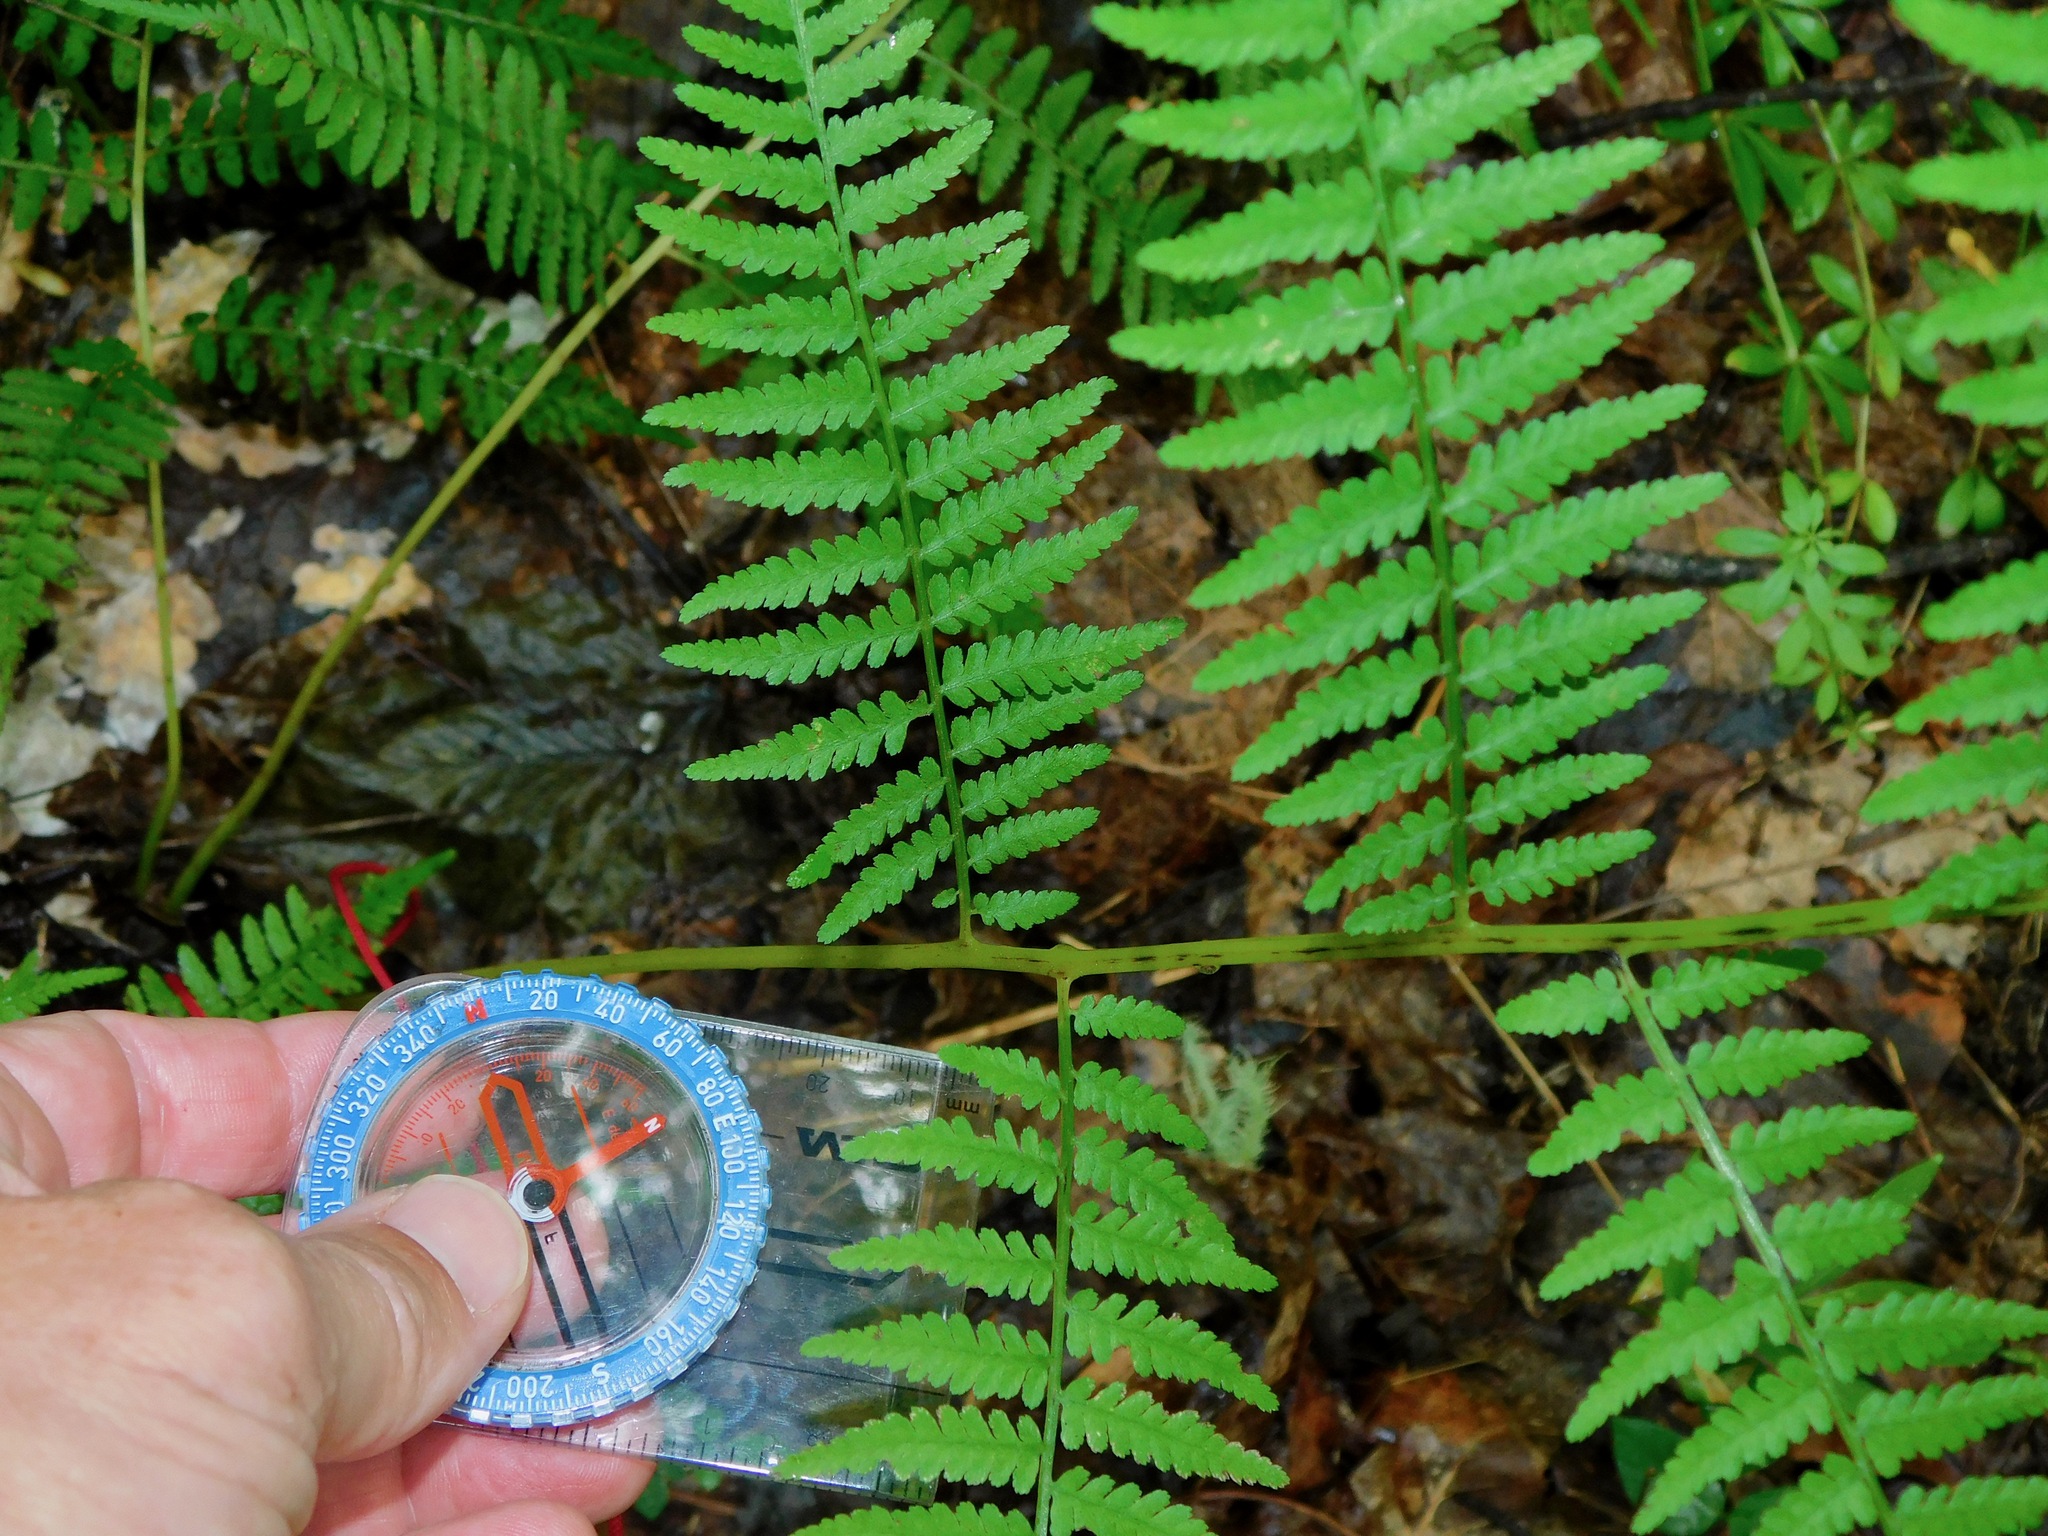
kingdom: Plantae
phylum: Tracheophyta
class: Polypodiopsida
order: Polypodiales
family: Athyriaceae
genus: Athyrium
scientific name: Athyrium asplenioides
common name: Southern lady fern
